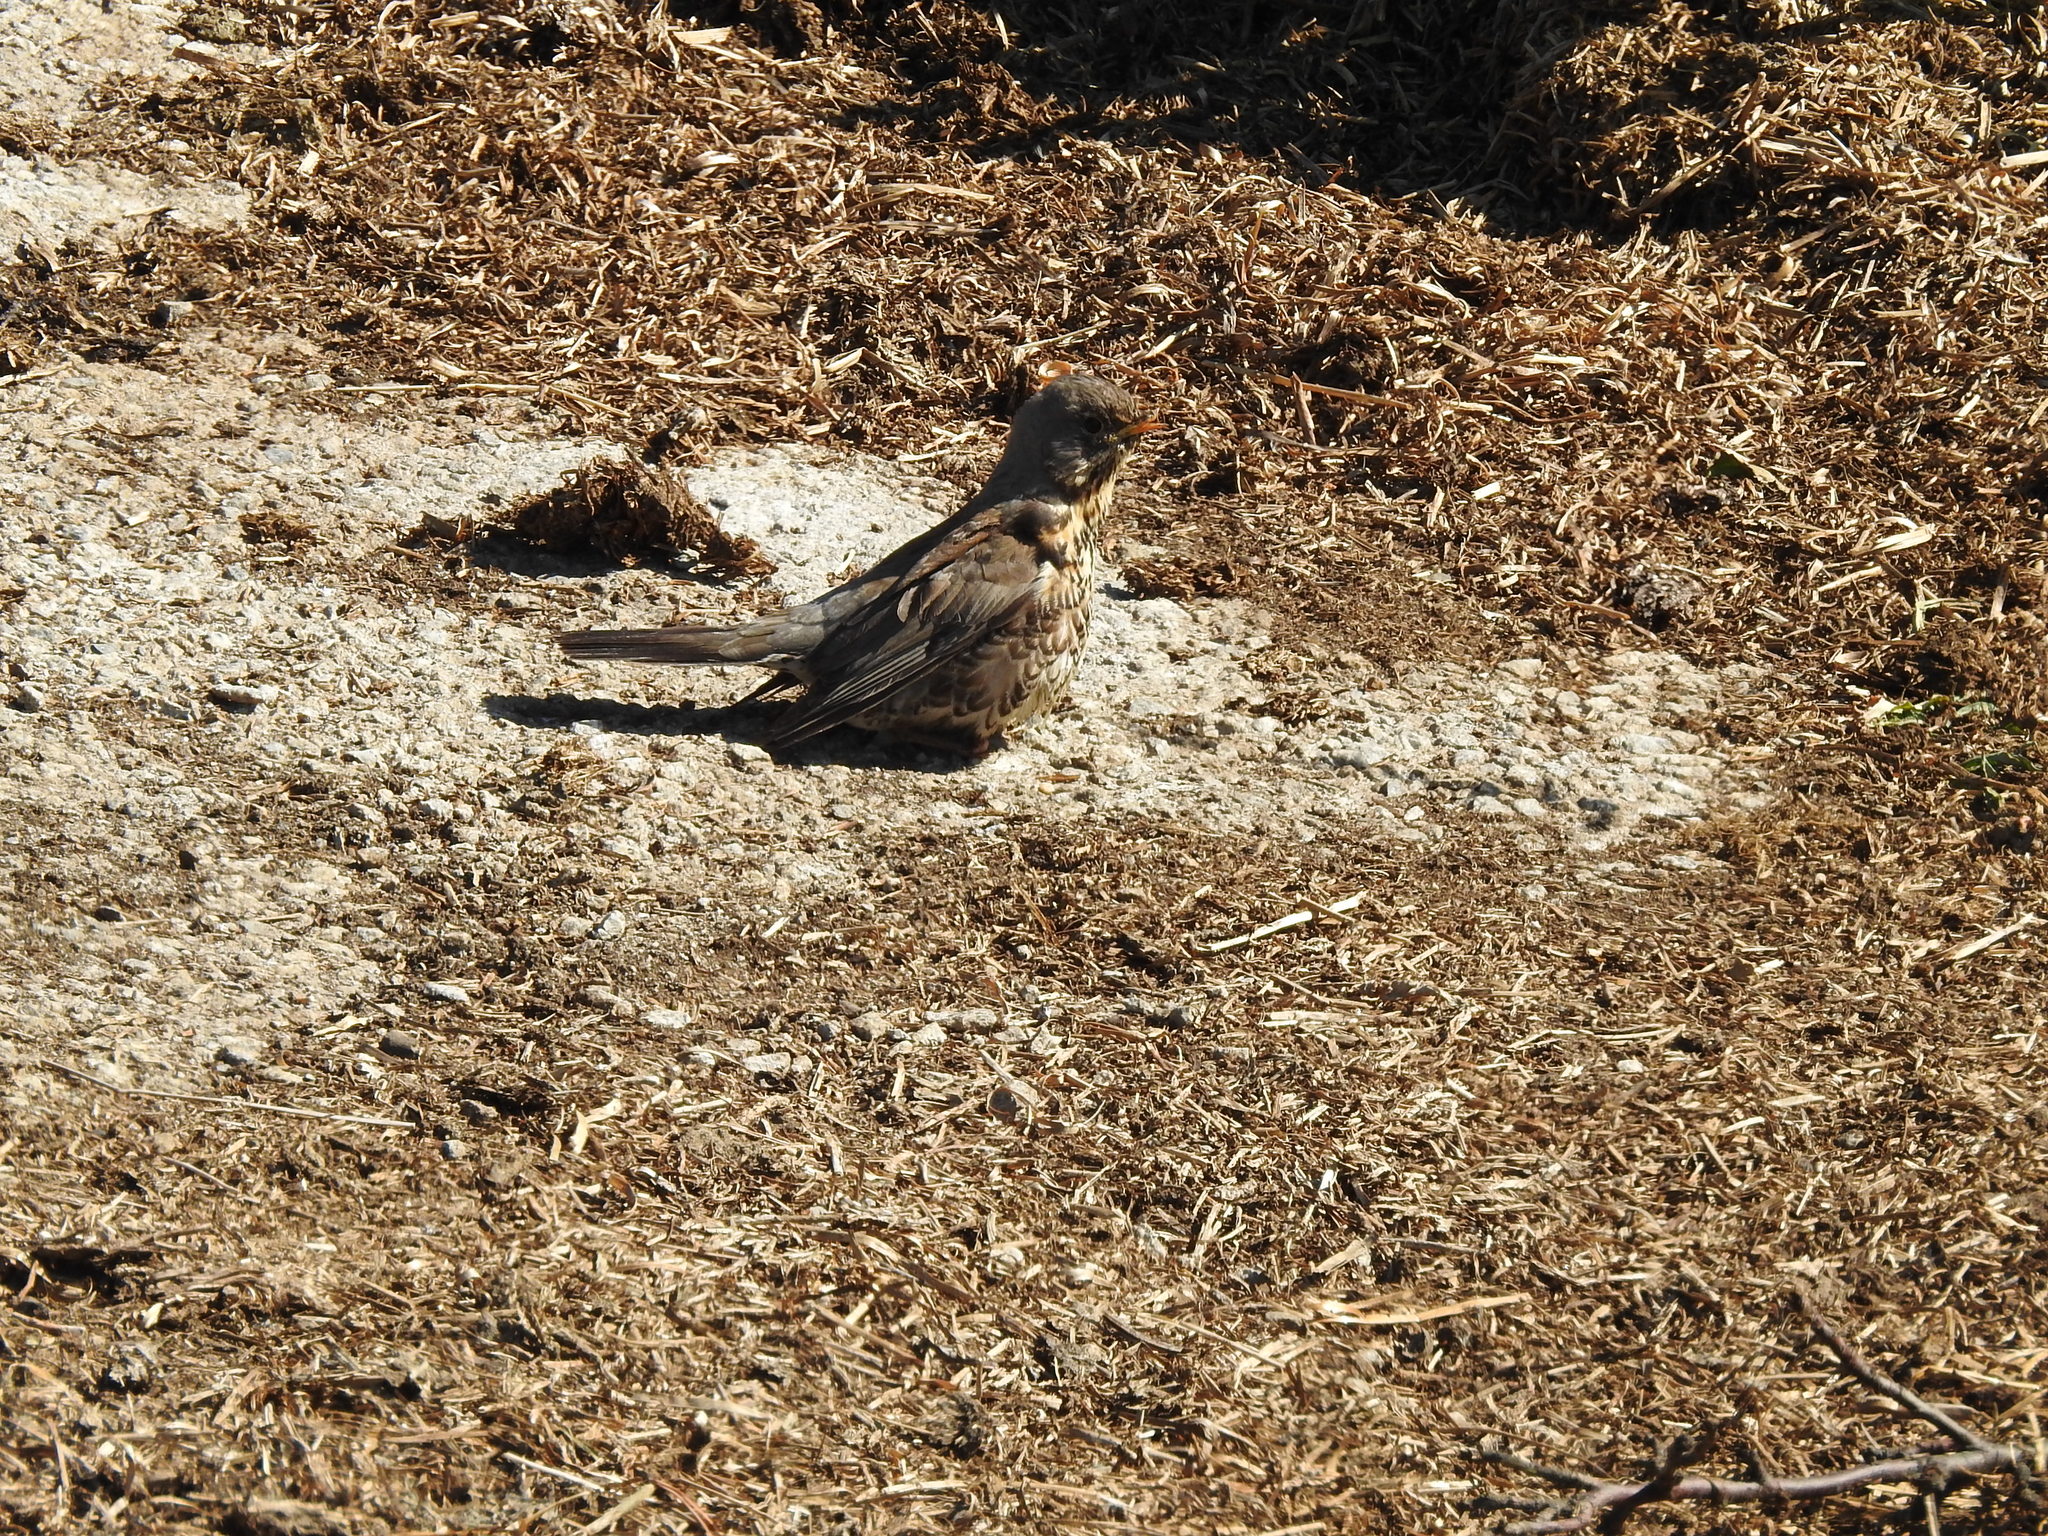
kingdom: Animalia
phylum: Chordata
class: Aves
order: Passeriformes
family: Turdidae
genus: Turdus
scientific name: Turdus pilaris
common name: Fieldfare
